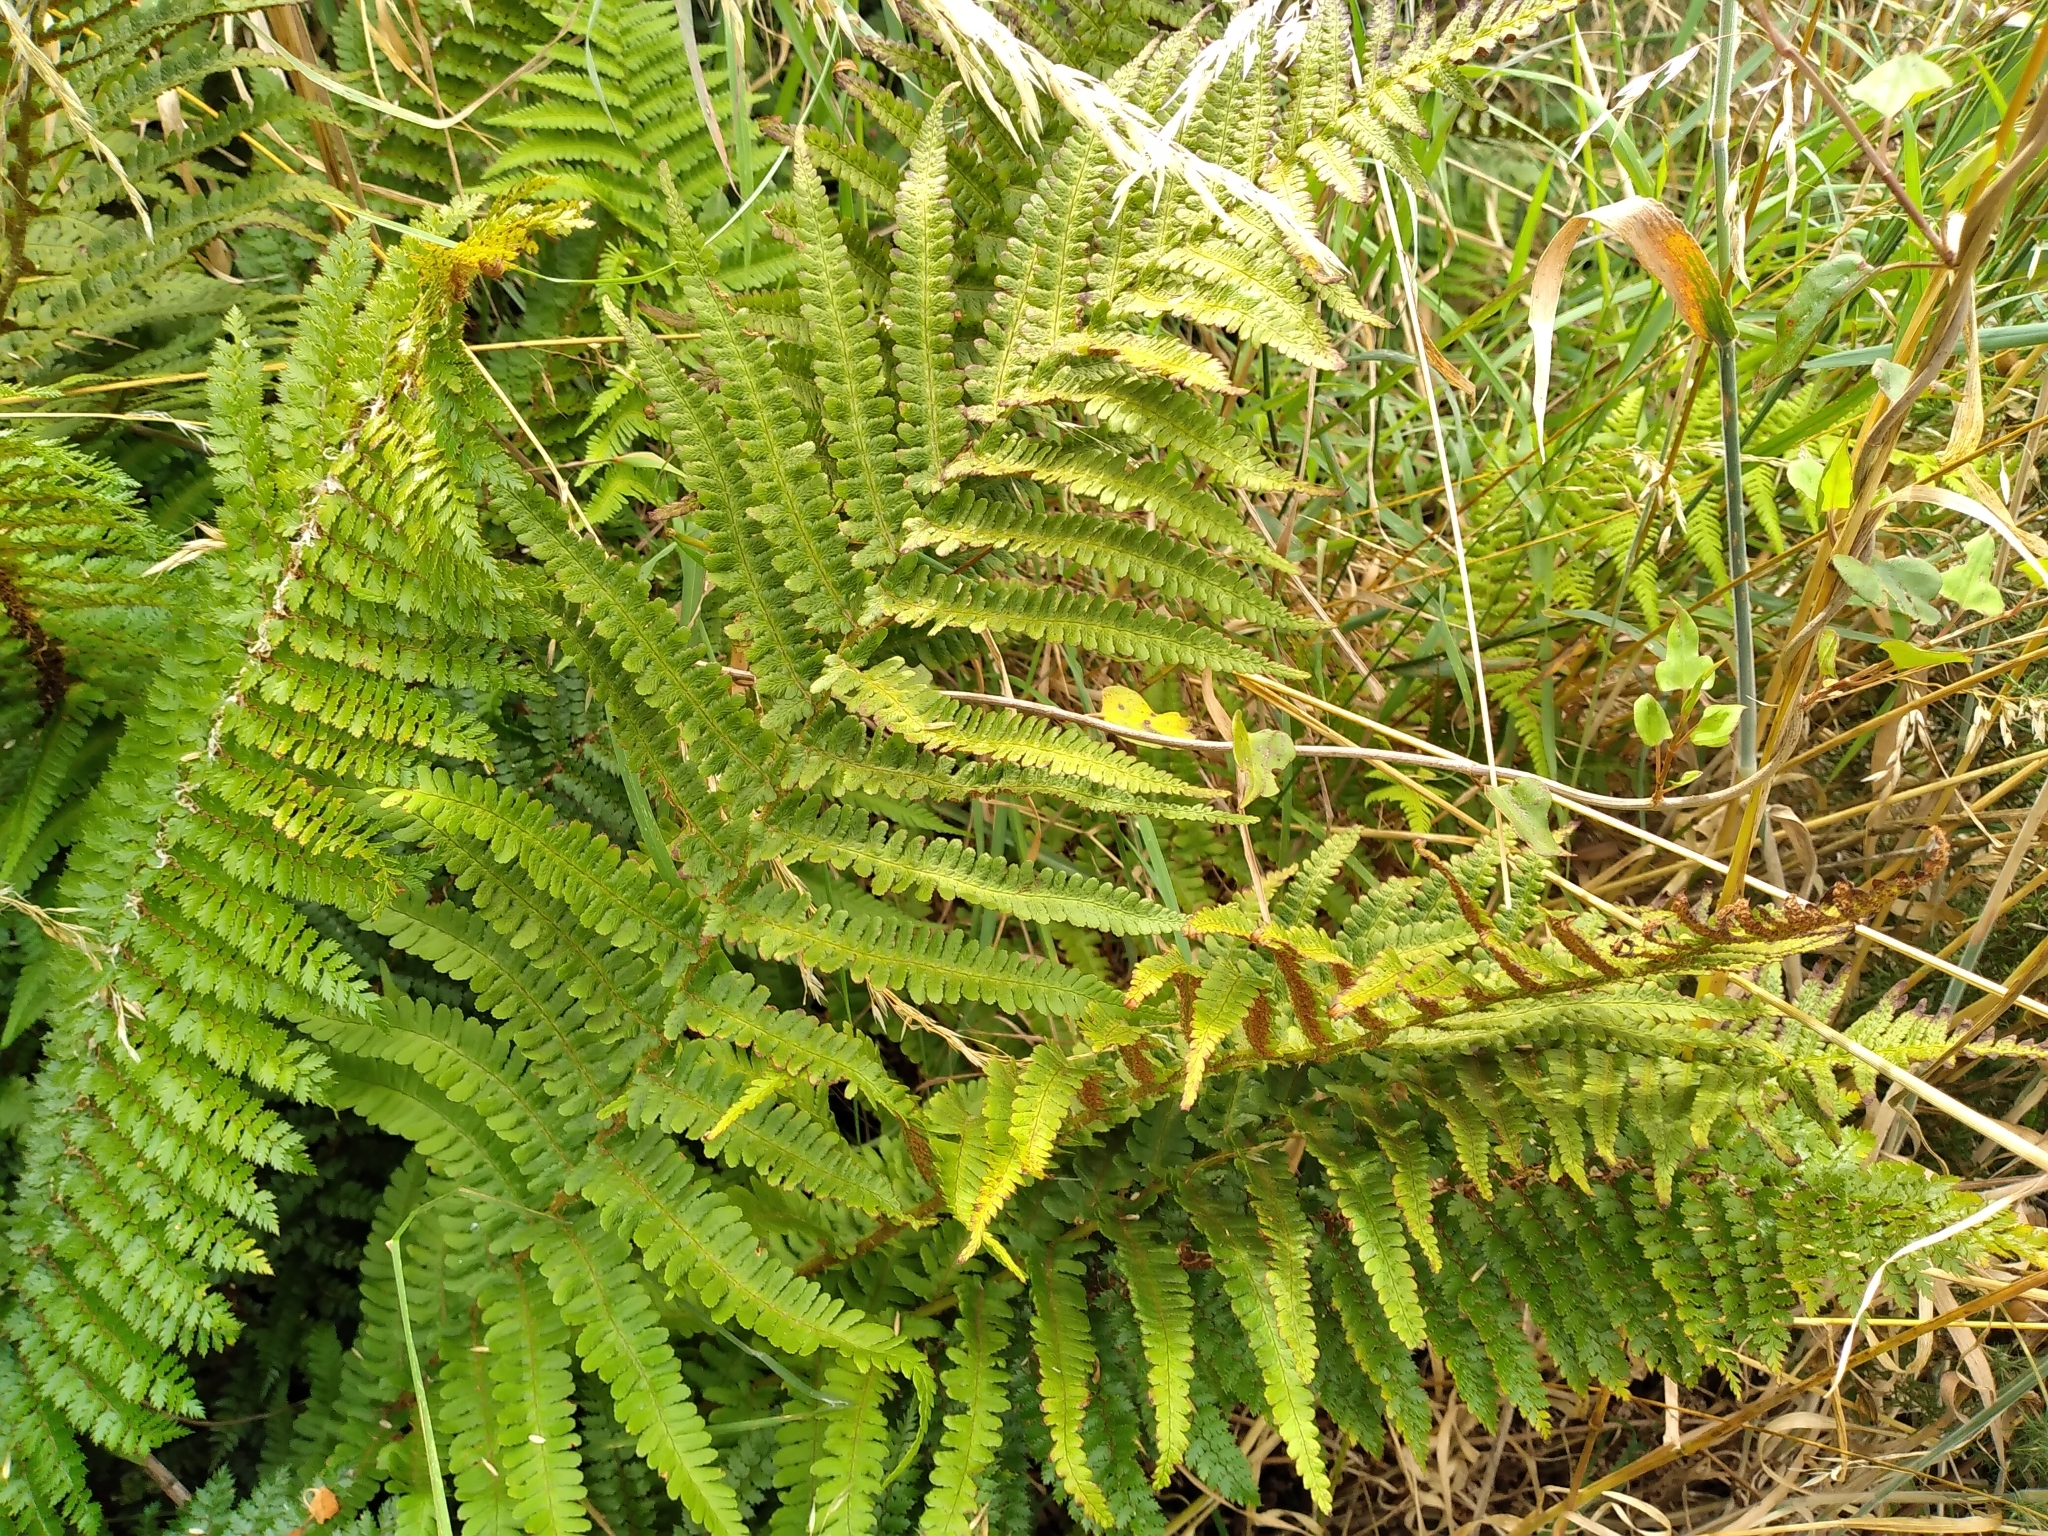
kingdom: Plantae
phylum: Tracheophyta
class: Polypodiopsida
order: Polypodiales
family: Dryopteridaceae
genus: Dryopteris
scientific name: Dryopteris filix-mas
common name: Male fern
